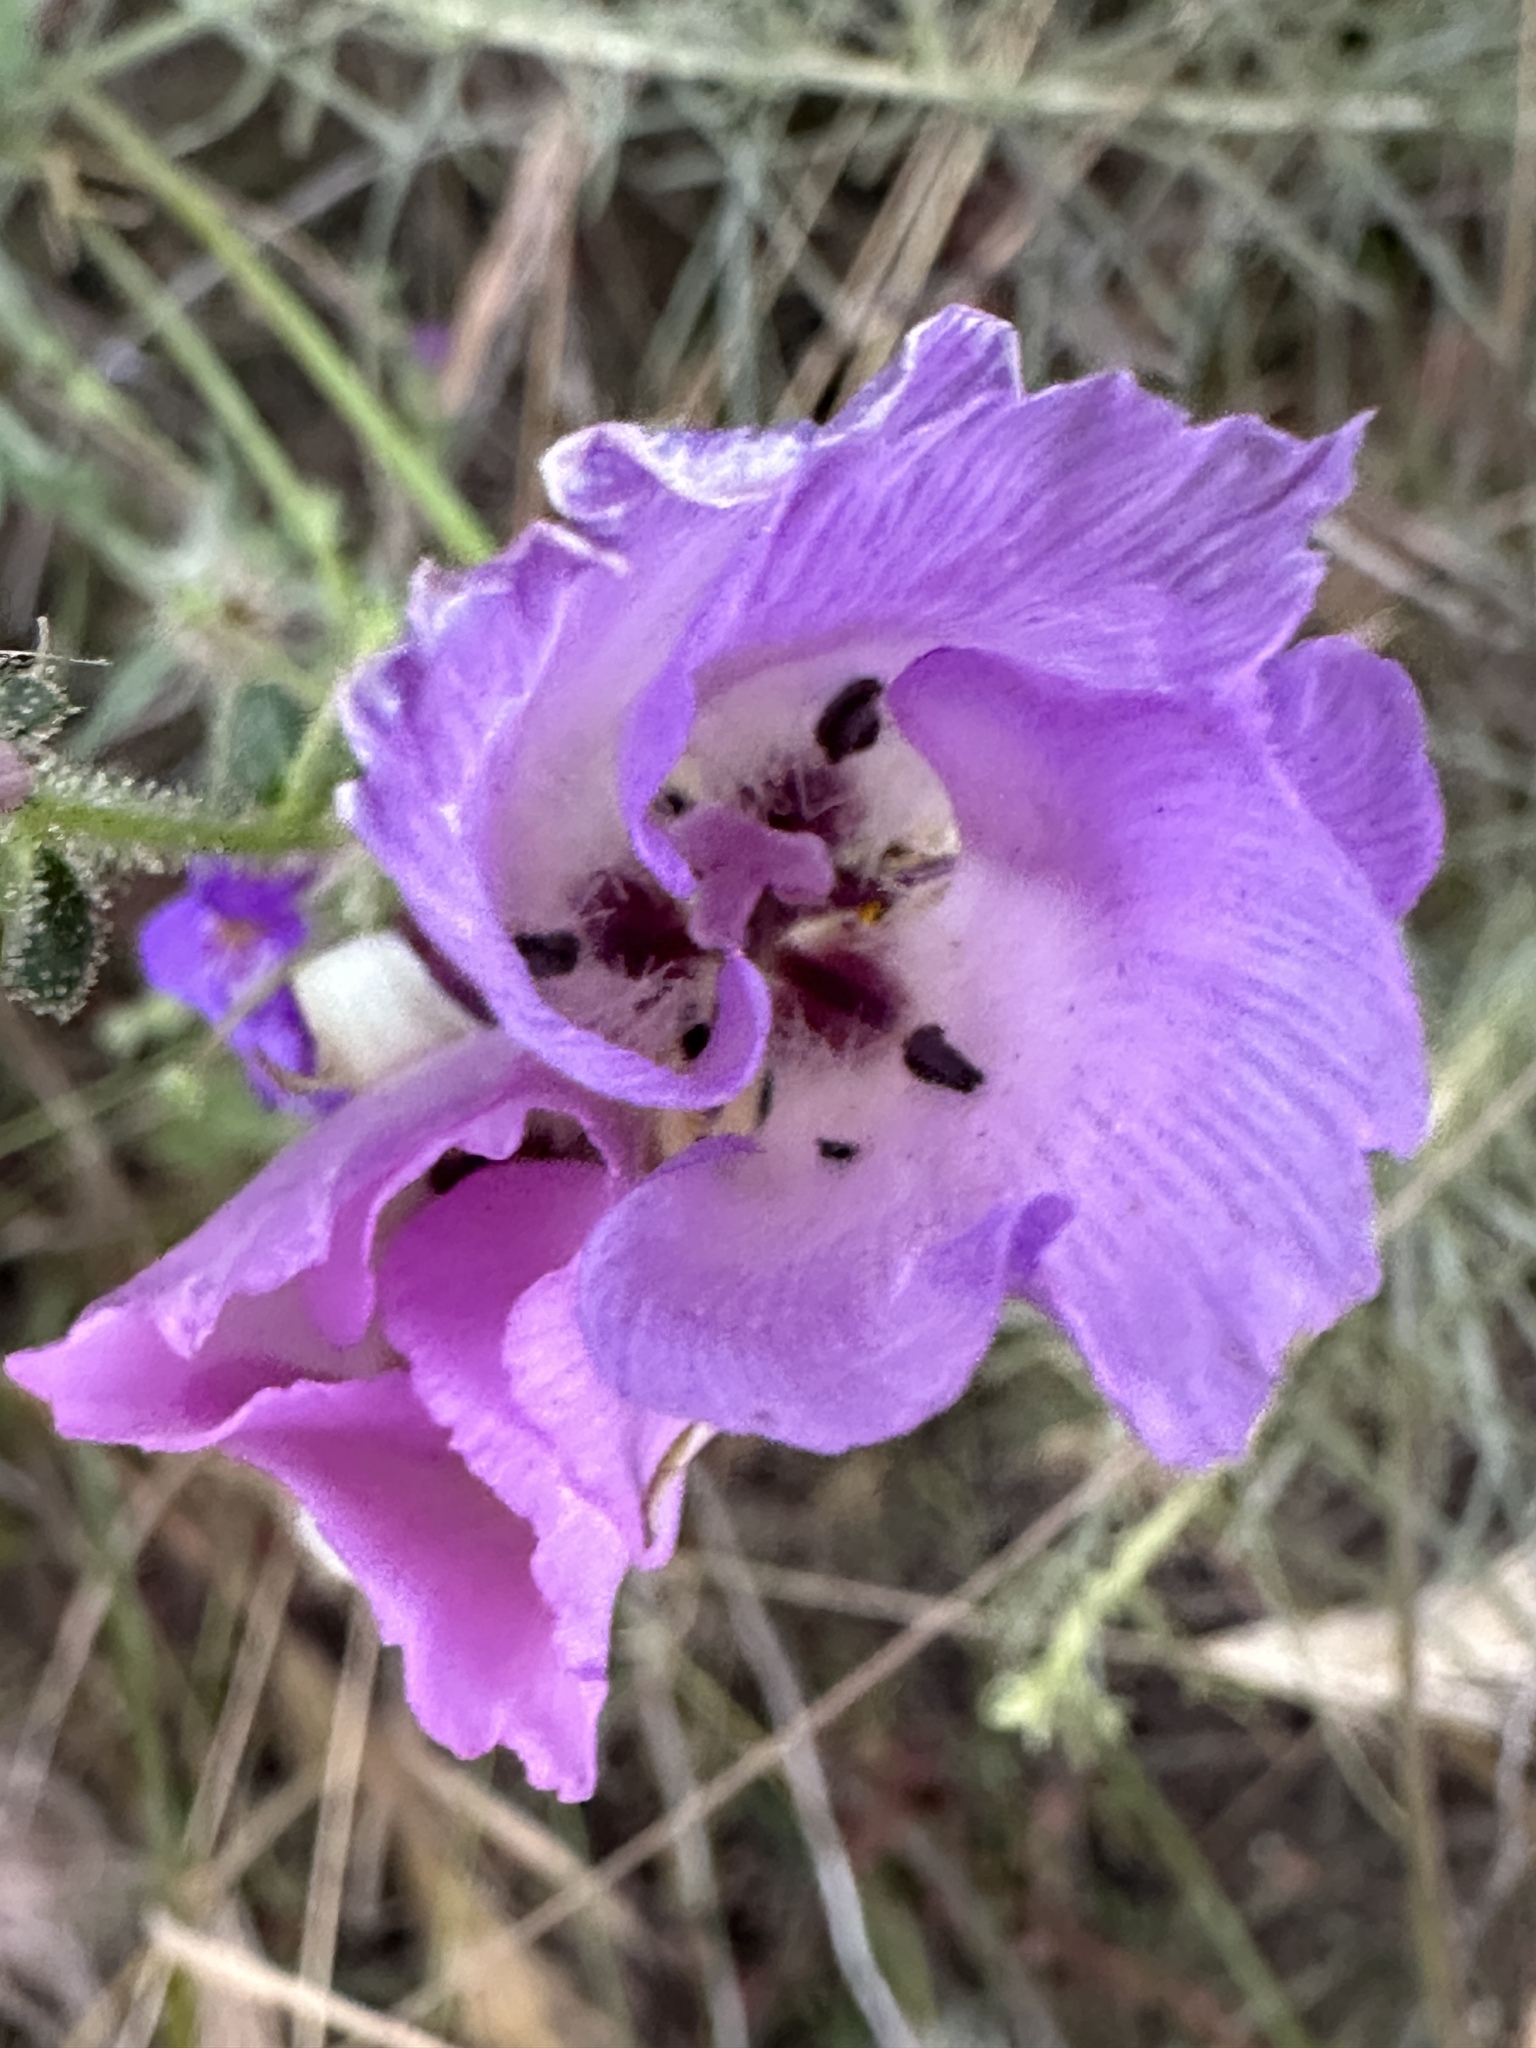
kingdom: Plantae
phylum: Tracheophyta
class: Liliopsida
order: Liliales
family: Liliaceae
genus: Calochortus
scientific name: Calochortus splendens
